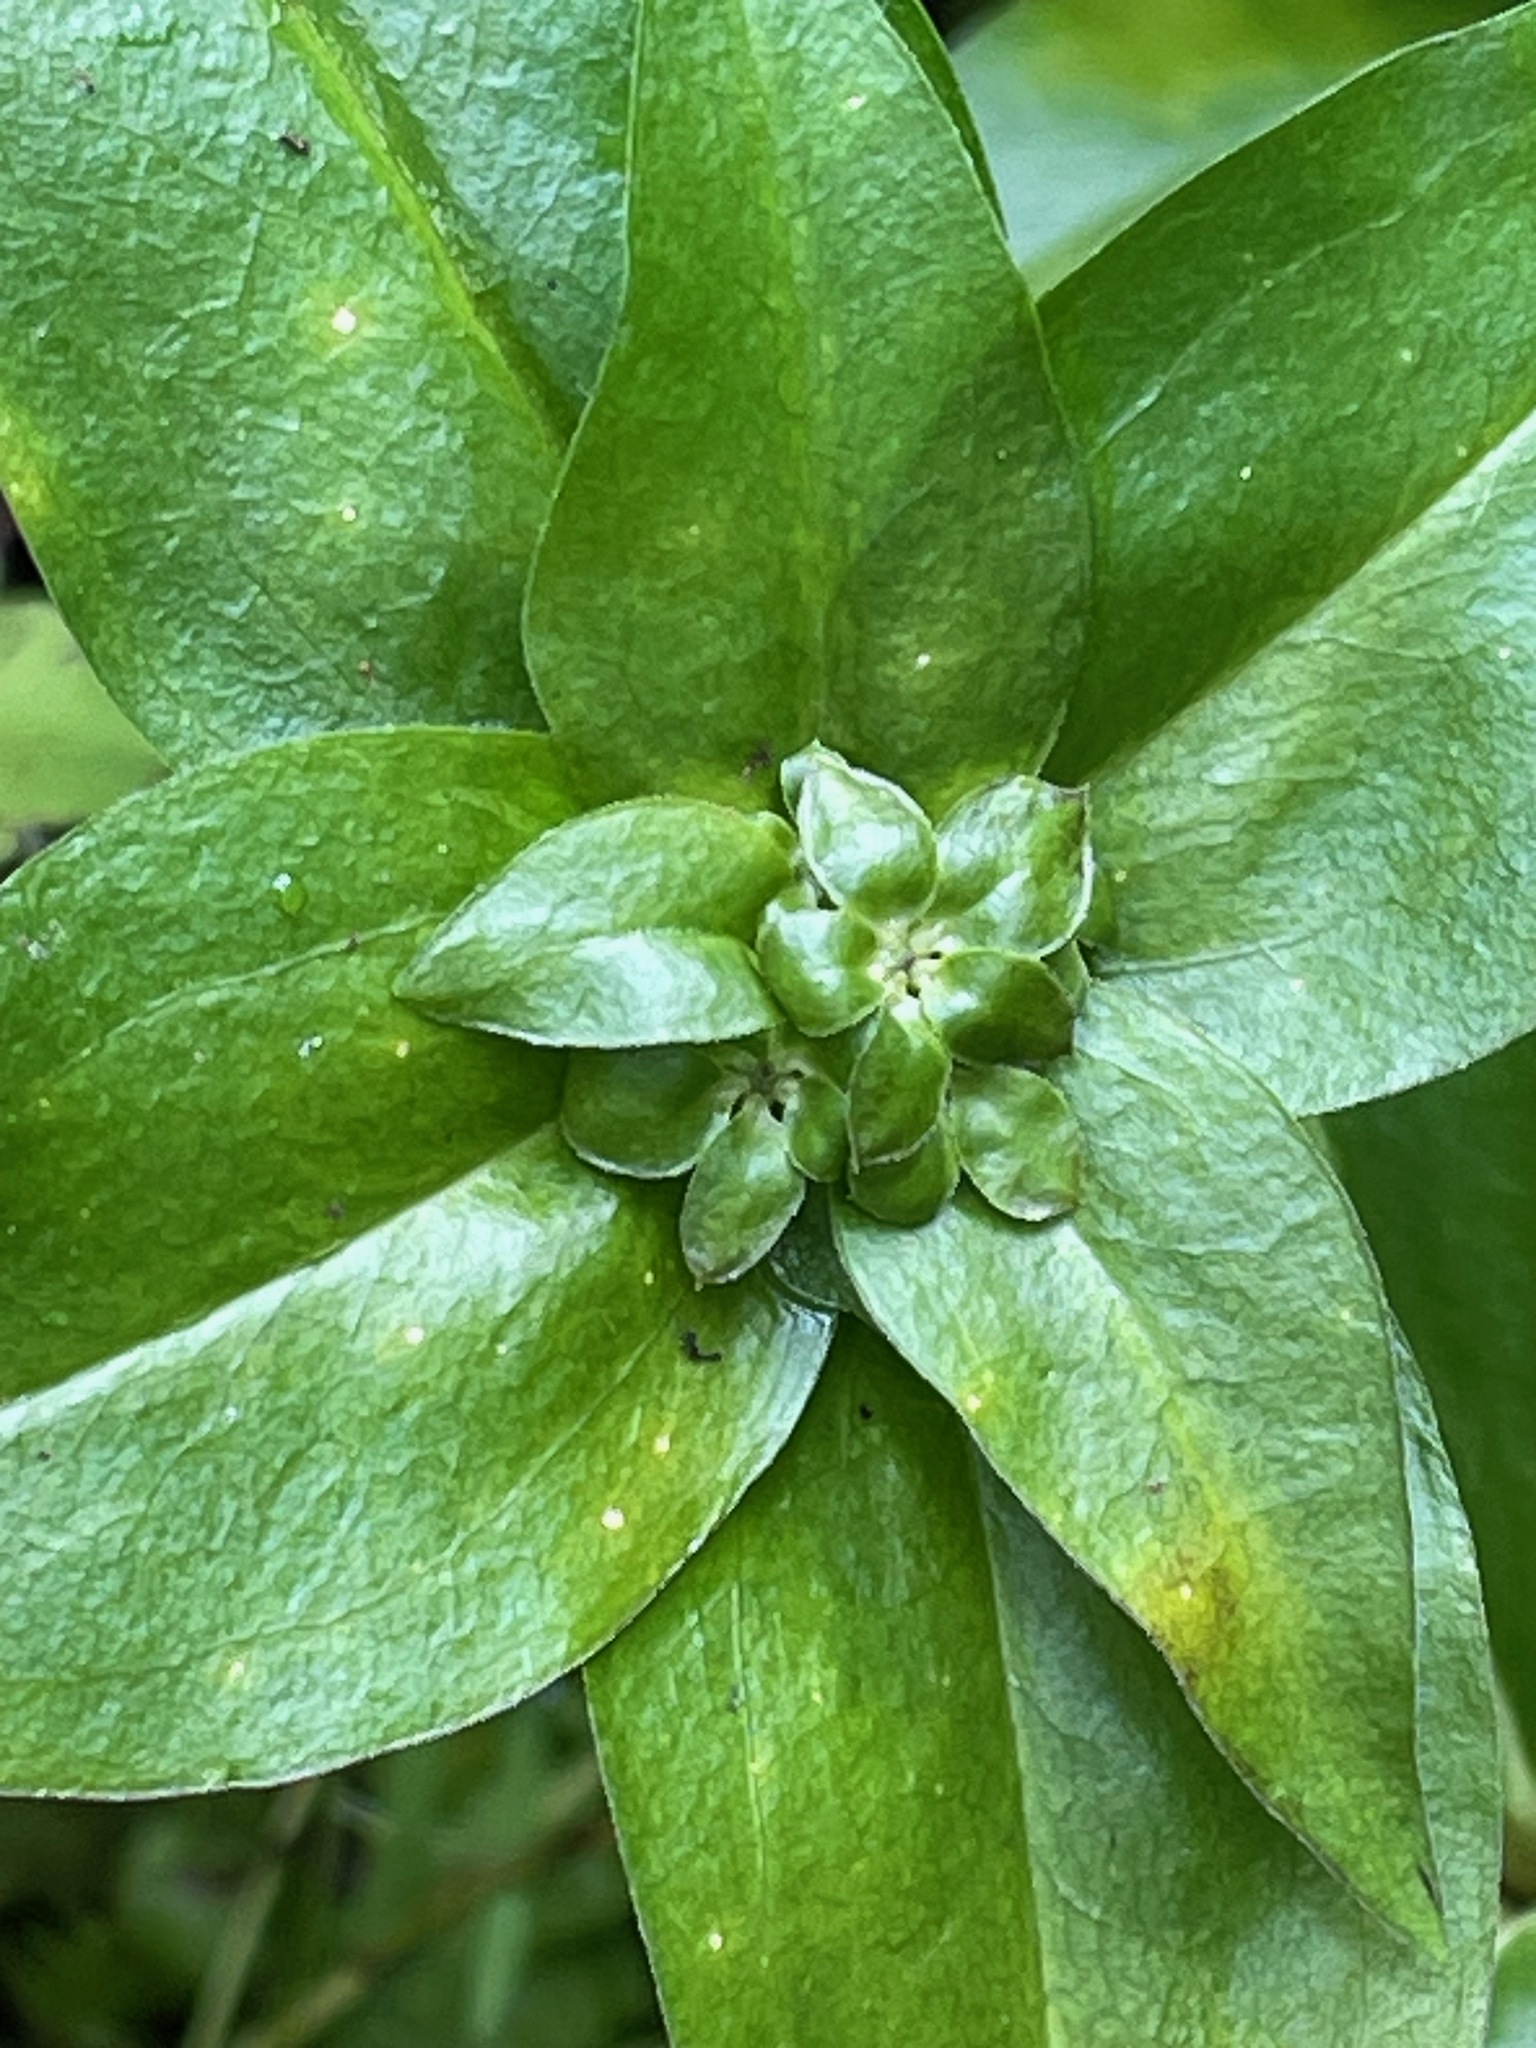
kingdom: Plantae
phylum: Tracheophyta
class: Magnoliopsida
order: Gentianales
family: Gentianaceae
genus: Gentiana
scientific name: Gentiana clausa
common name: Blind gentian
